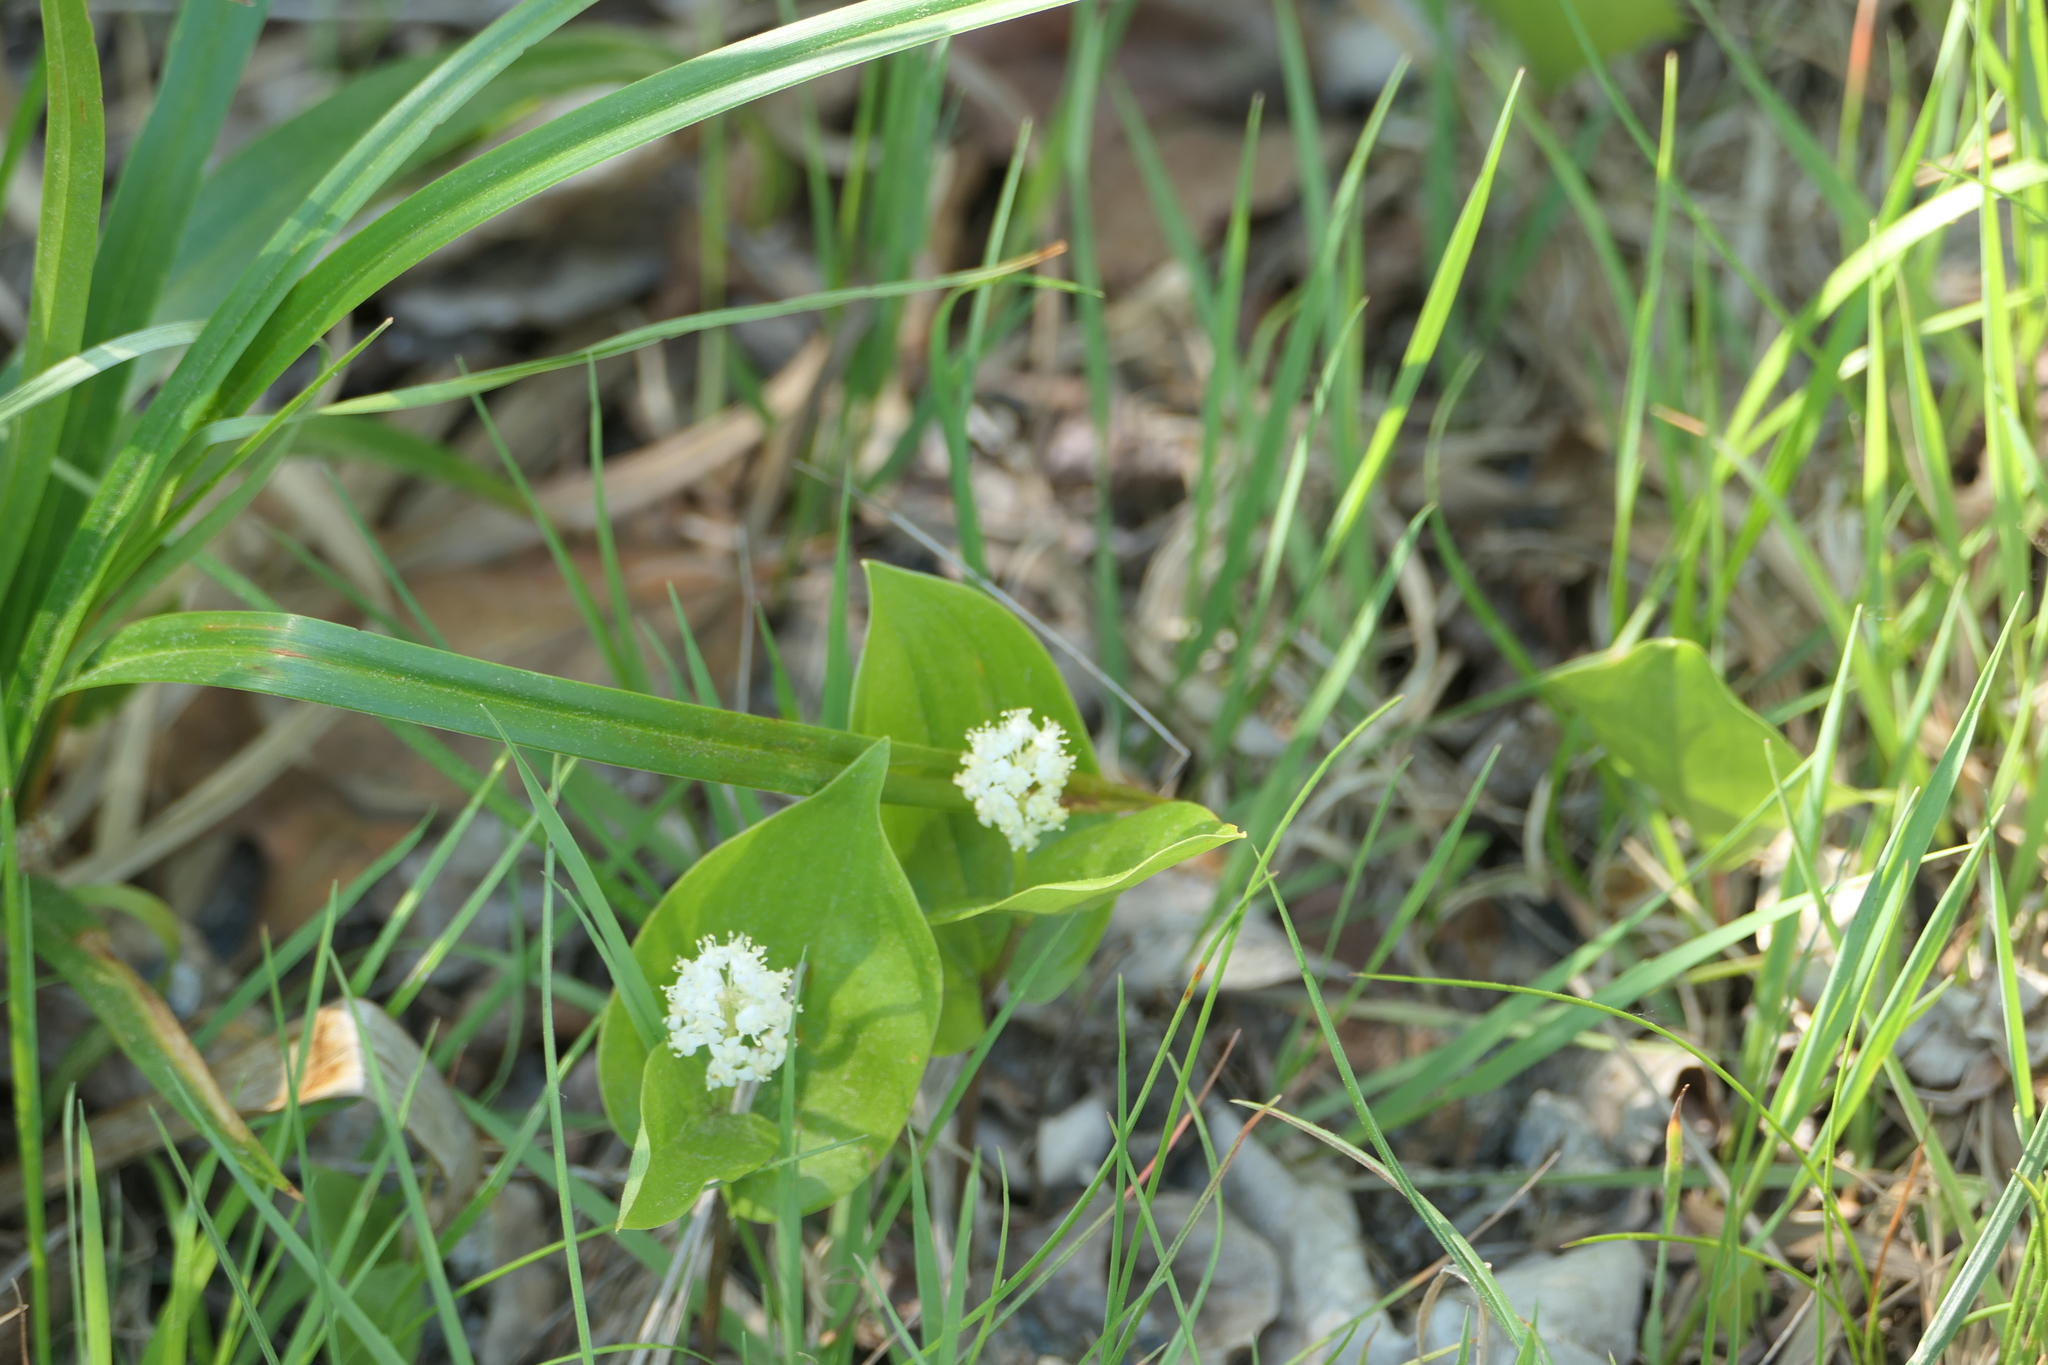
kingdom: Plantae
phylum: Tracheophyta
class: Liliopsida
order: Asparagales
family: Asparagaceae
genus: Maianthemum
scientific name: Maianthemum canadense
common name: False lily-of-the-valley
